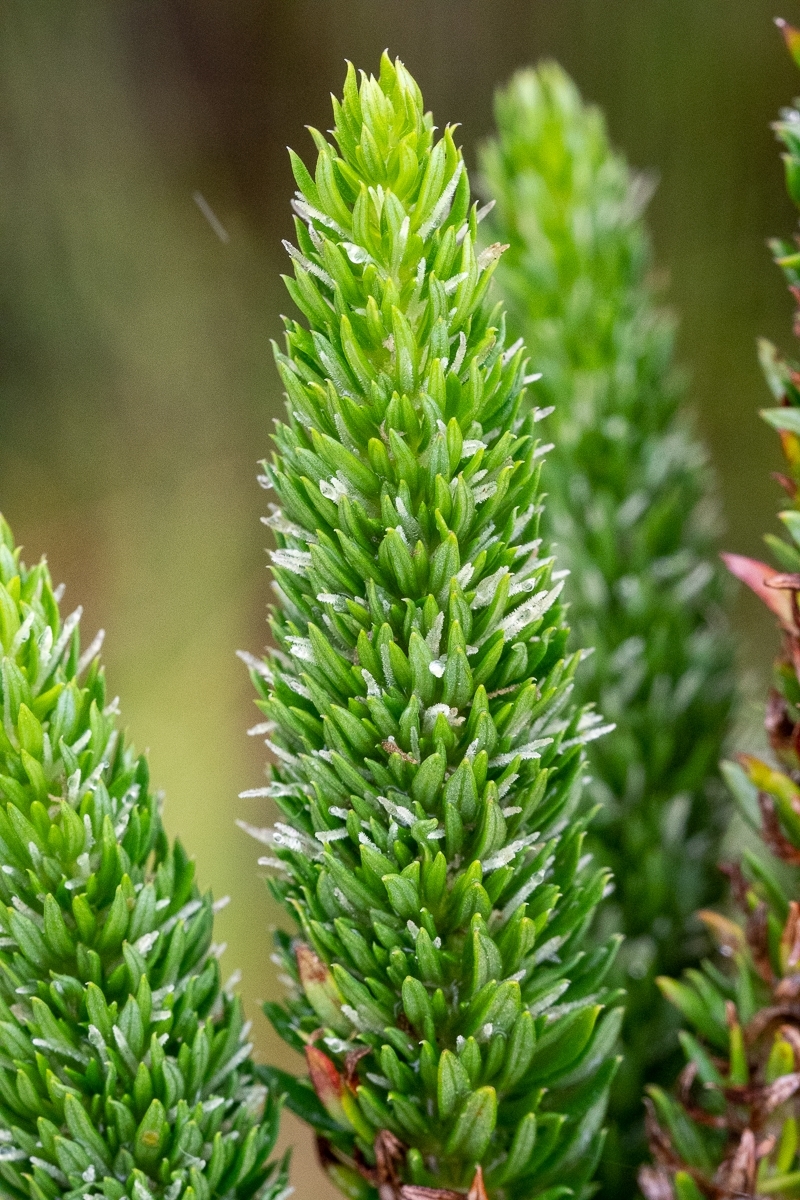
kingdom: Plantae
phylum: Tracheophyta
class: Magnoliopsida
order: Gentianales
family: Rubiaceae
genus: Anthospermum
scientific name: Anthospermum aethiopicum
